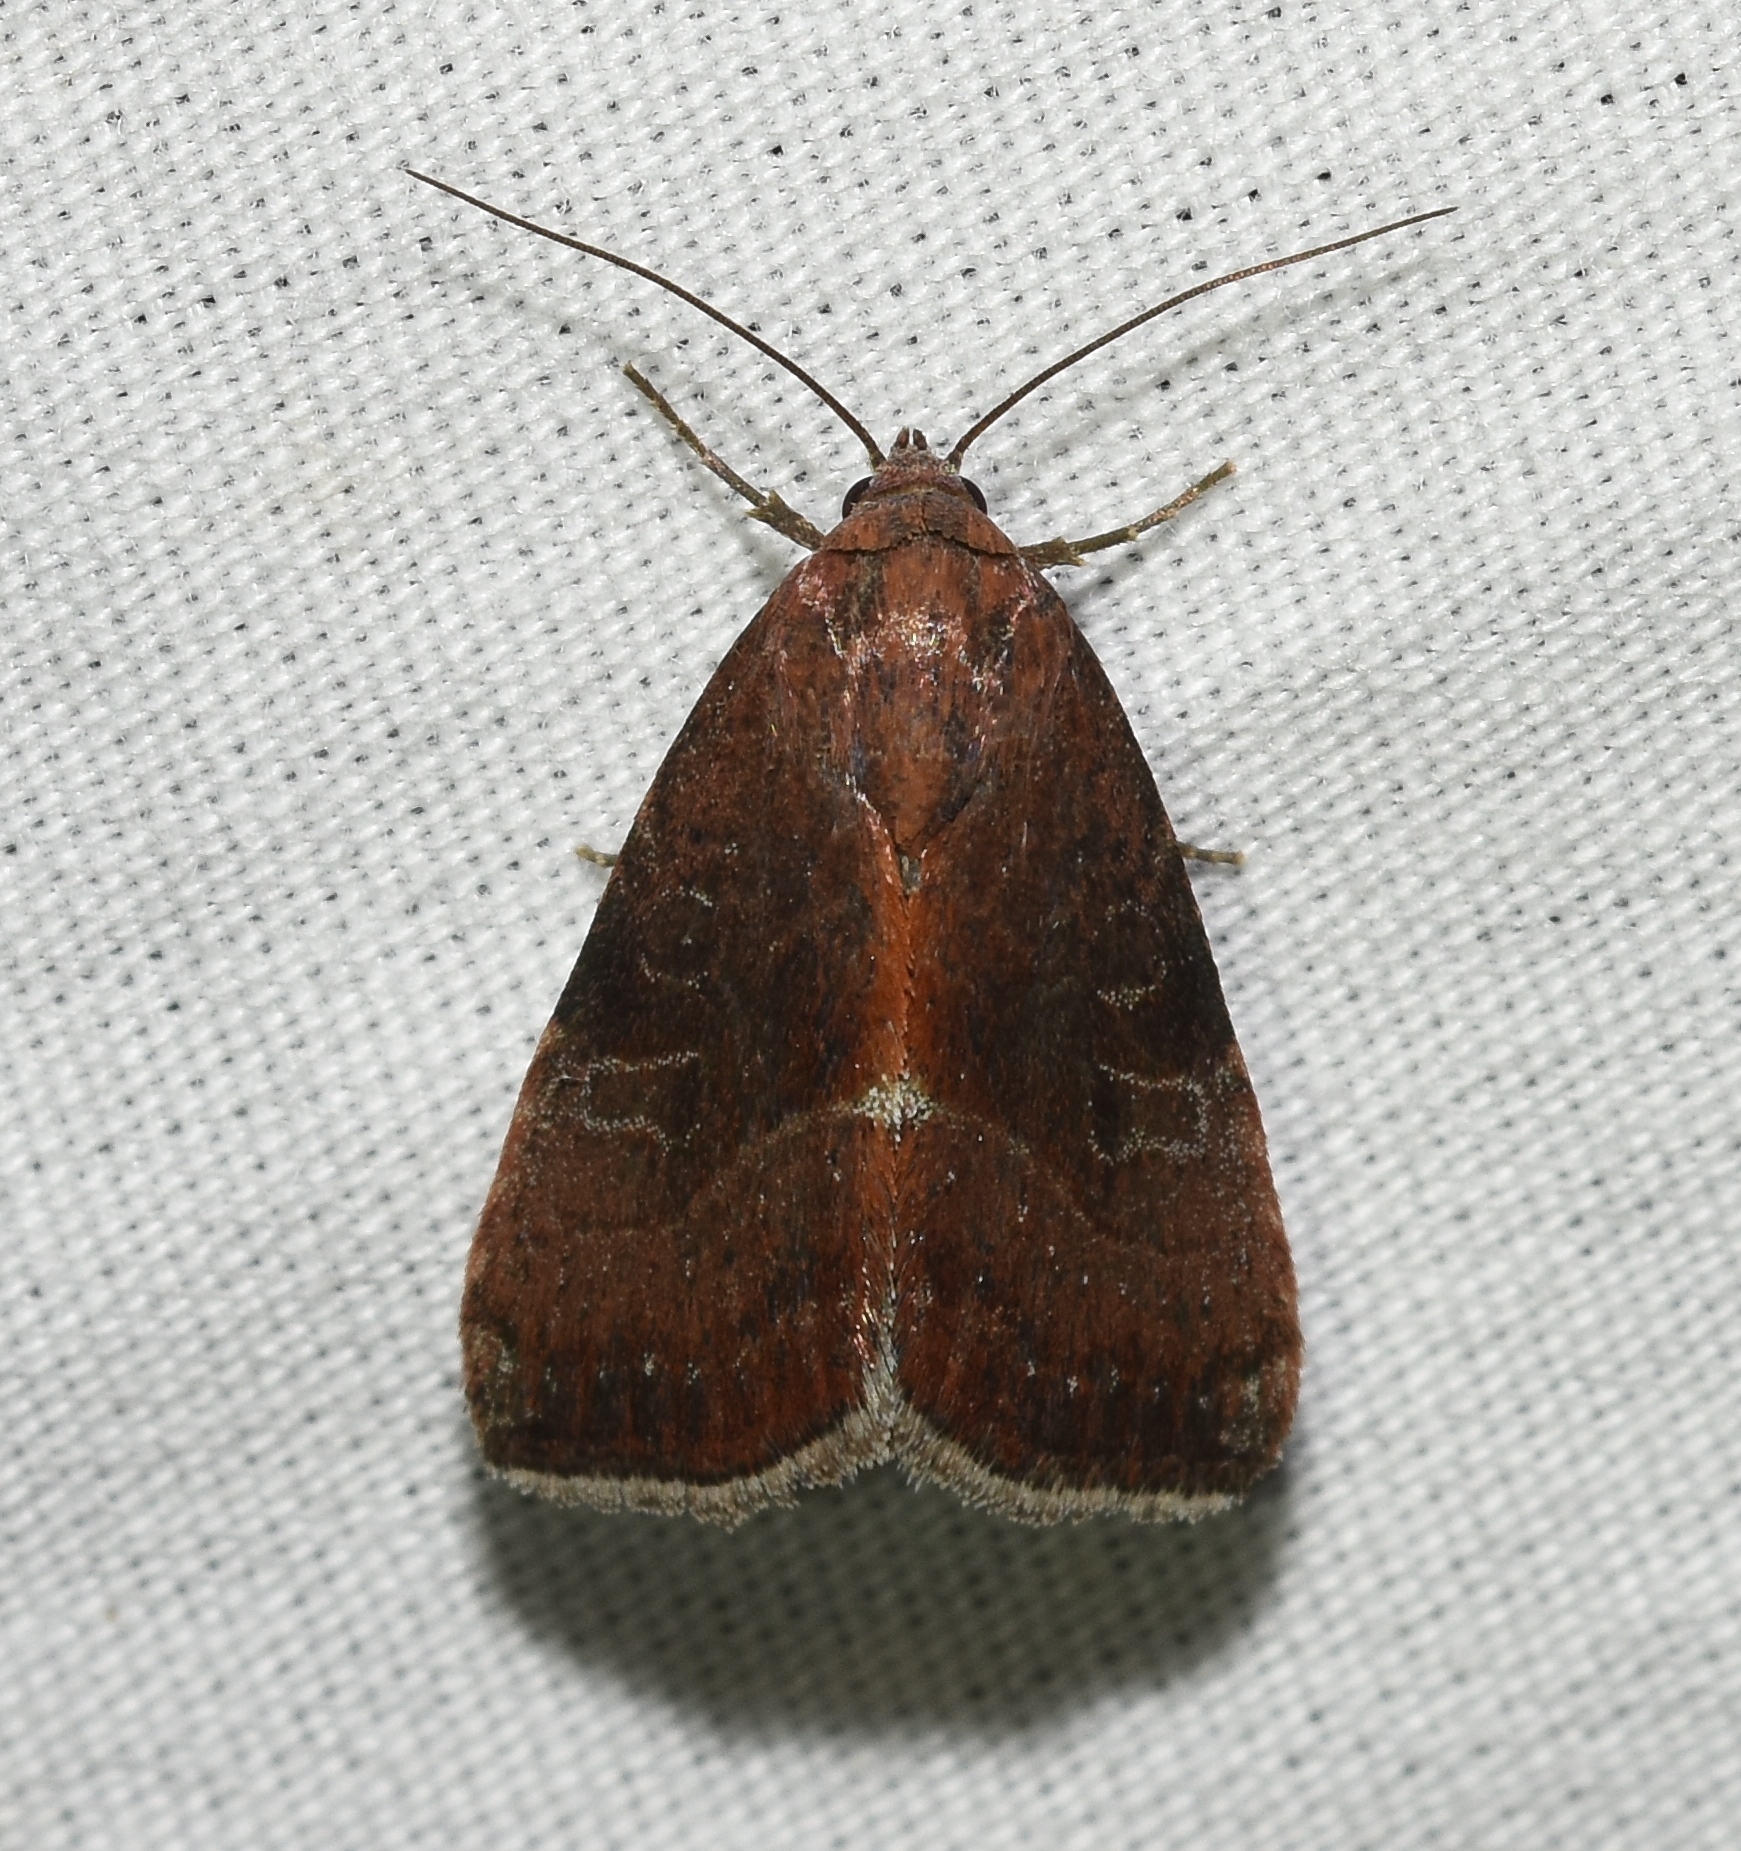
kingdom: Animalia
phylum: Arthropoda
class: Insecta
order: Lepidoptera
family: Noctuidae
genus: Galgula
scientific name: Galgula partita
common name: Wedgeling
